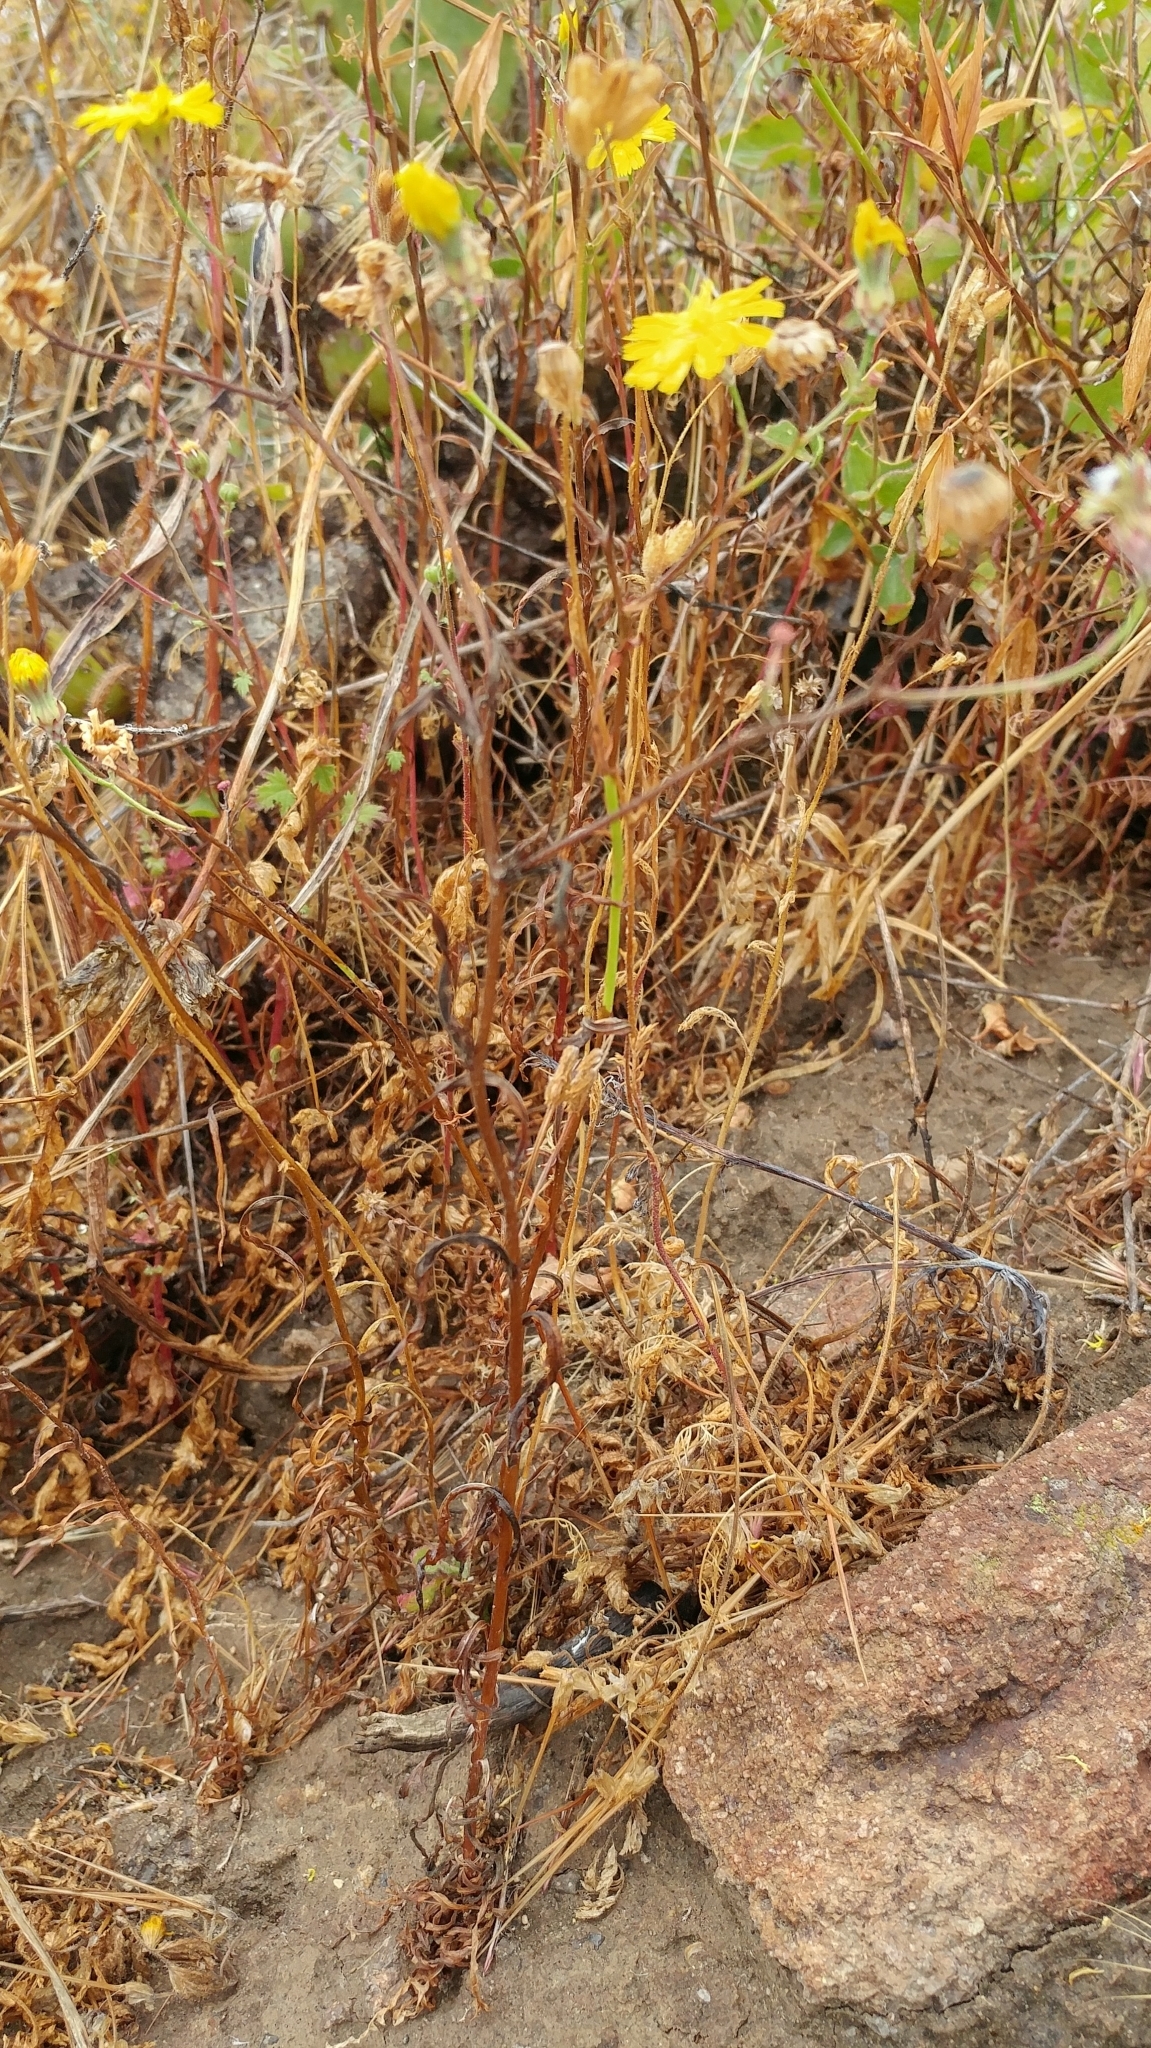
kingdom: Plantae
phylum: Tracheophyta
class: Magnoliopsida
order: Asterales
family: Asteraceae
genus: Malacothrix
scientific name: Malacothrix foliosa
